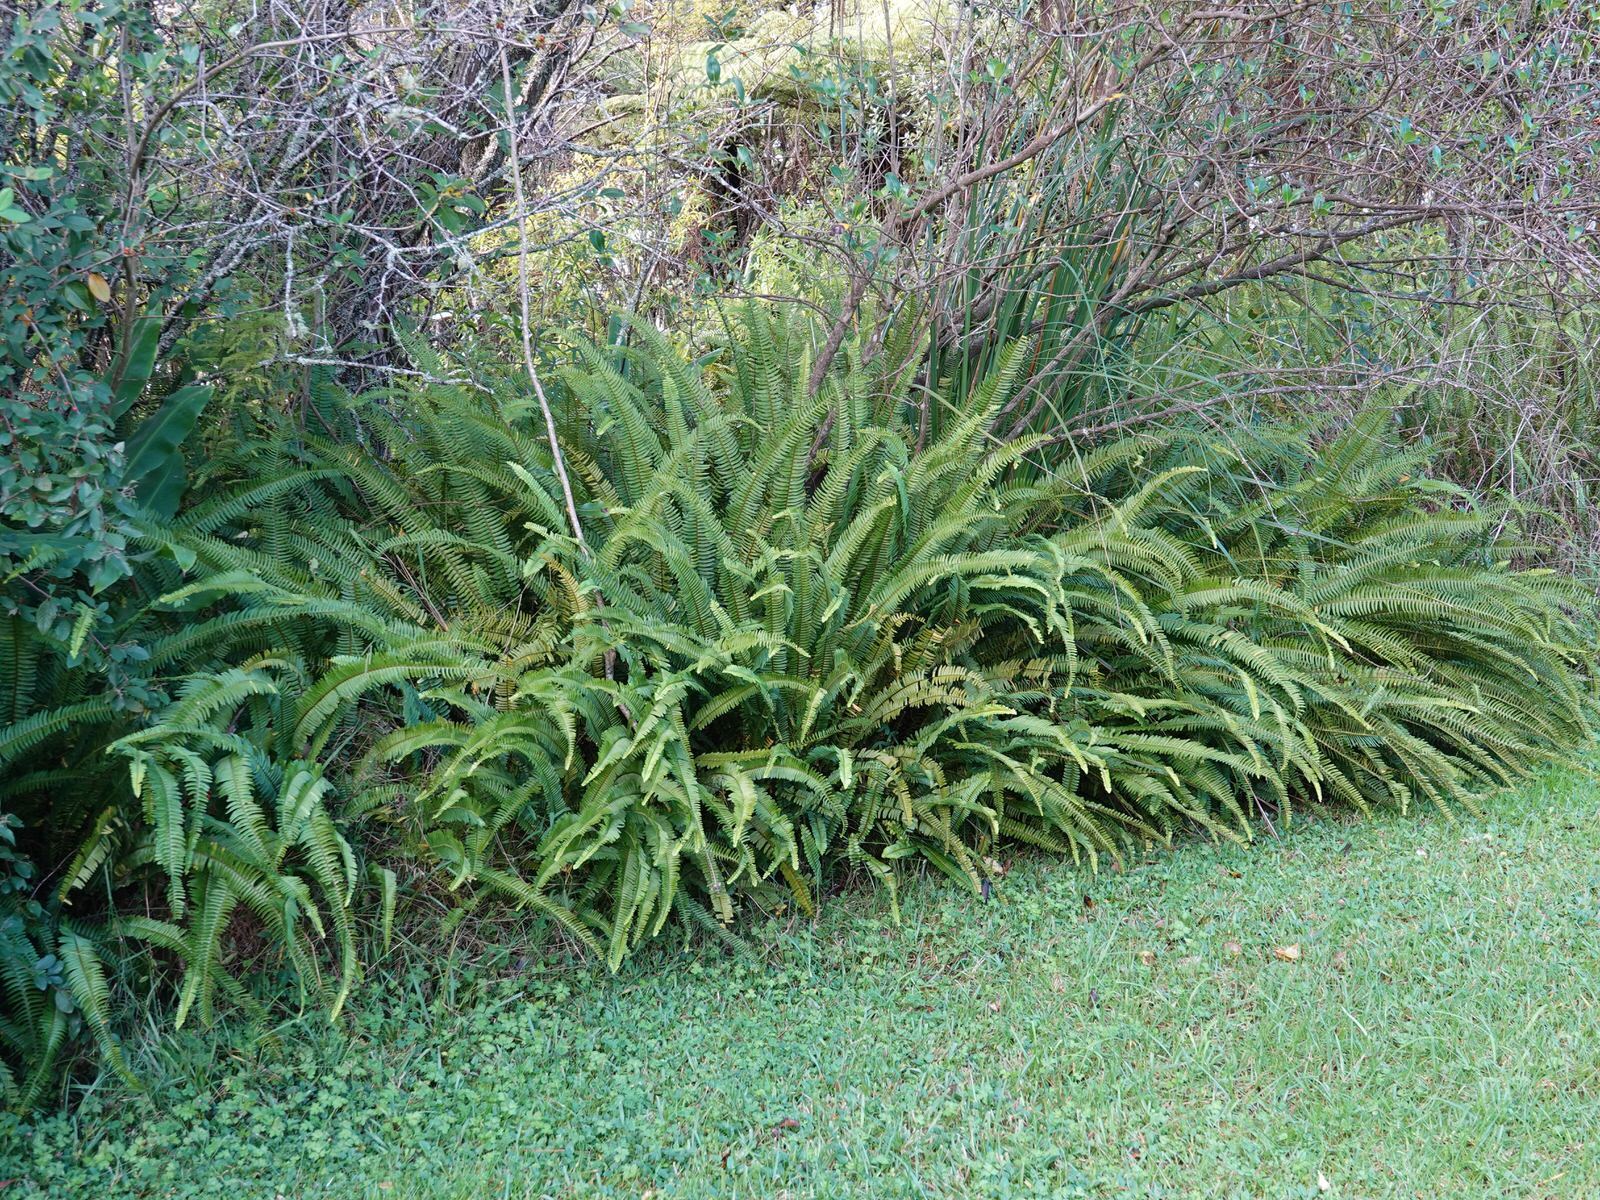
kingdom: Plantae
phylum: Tracheophyta
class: Polypodiopsida
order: Polypodiales
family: Nephrolepidaceae
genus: Nephrolepis
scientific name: Nephrolepis cordifolia
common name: Narrow swordfern
